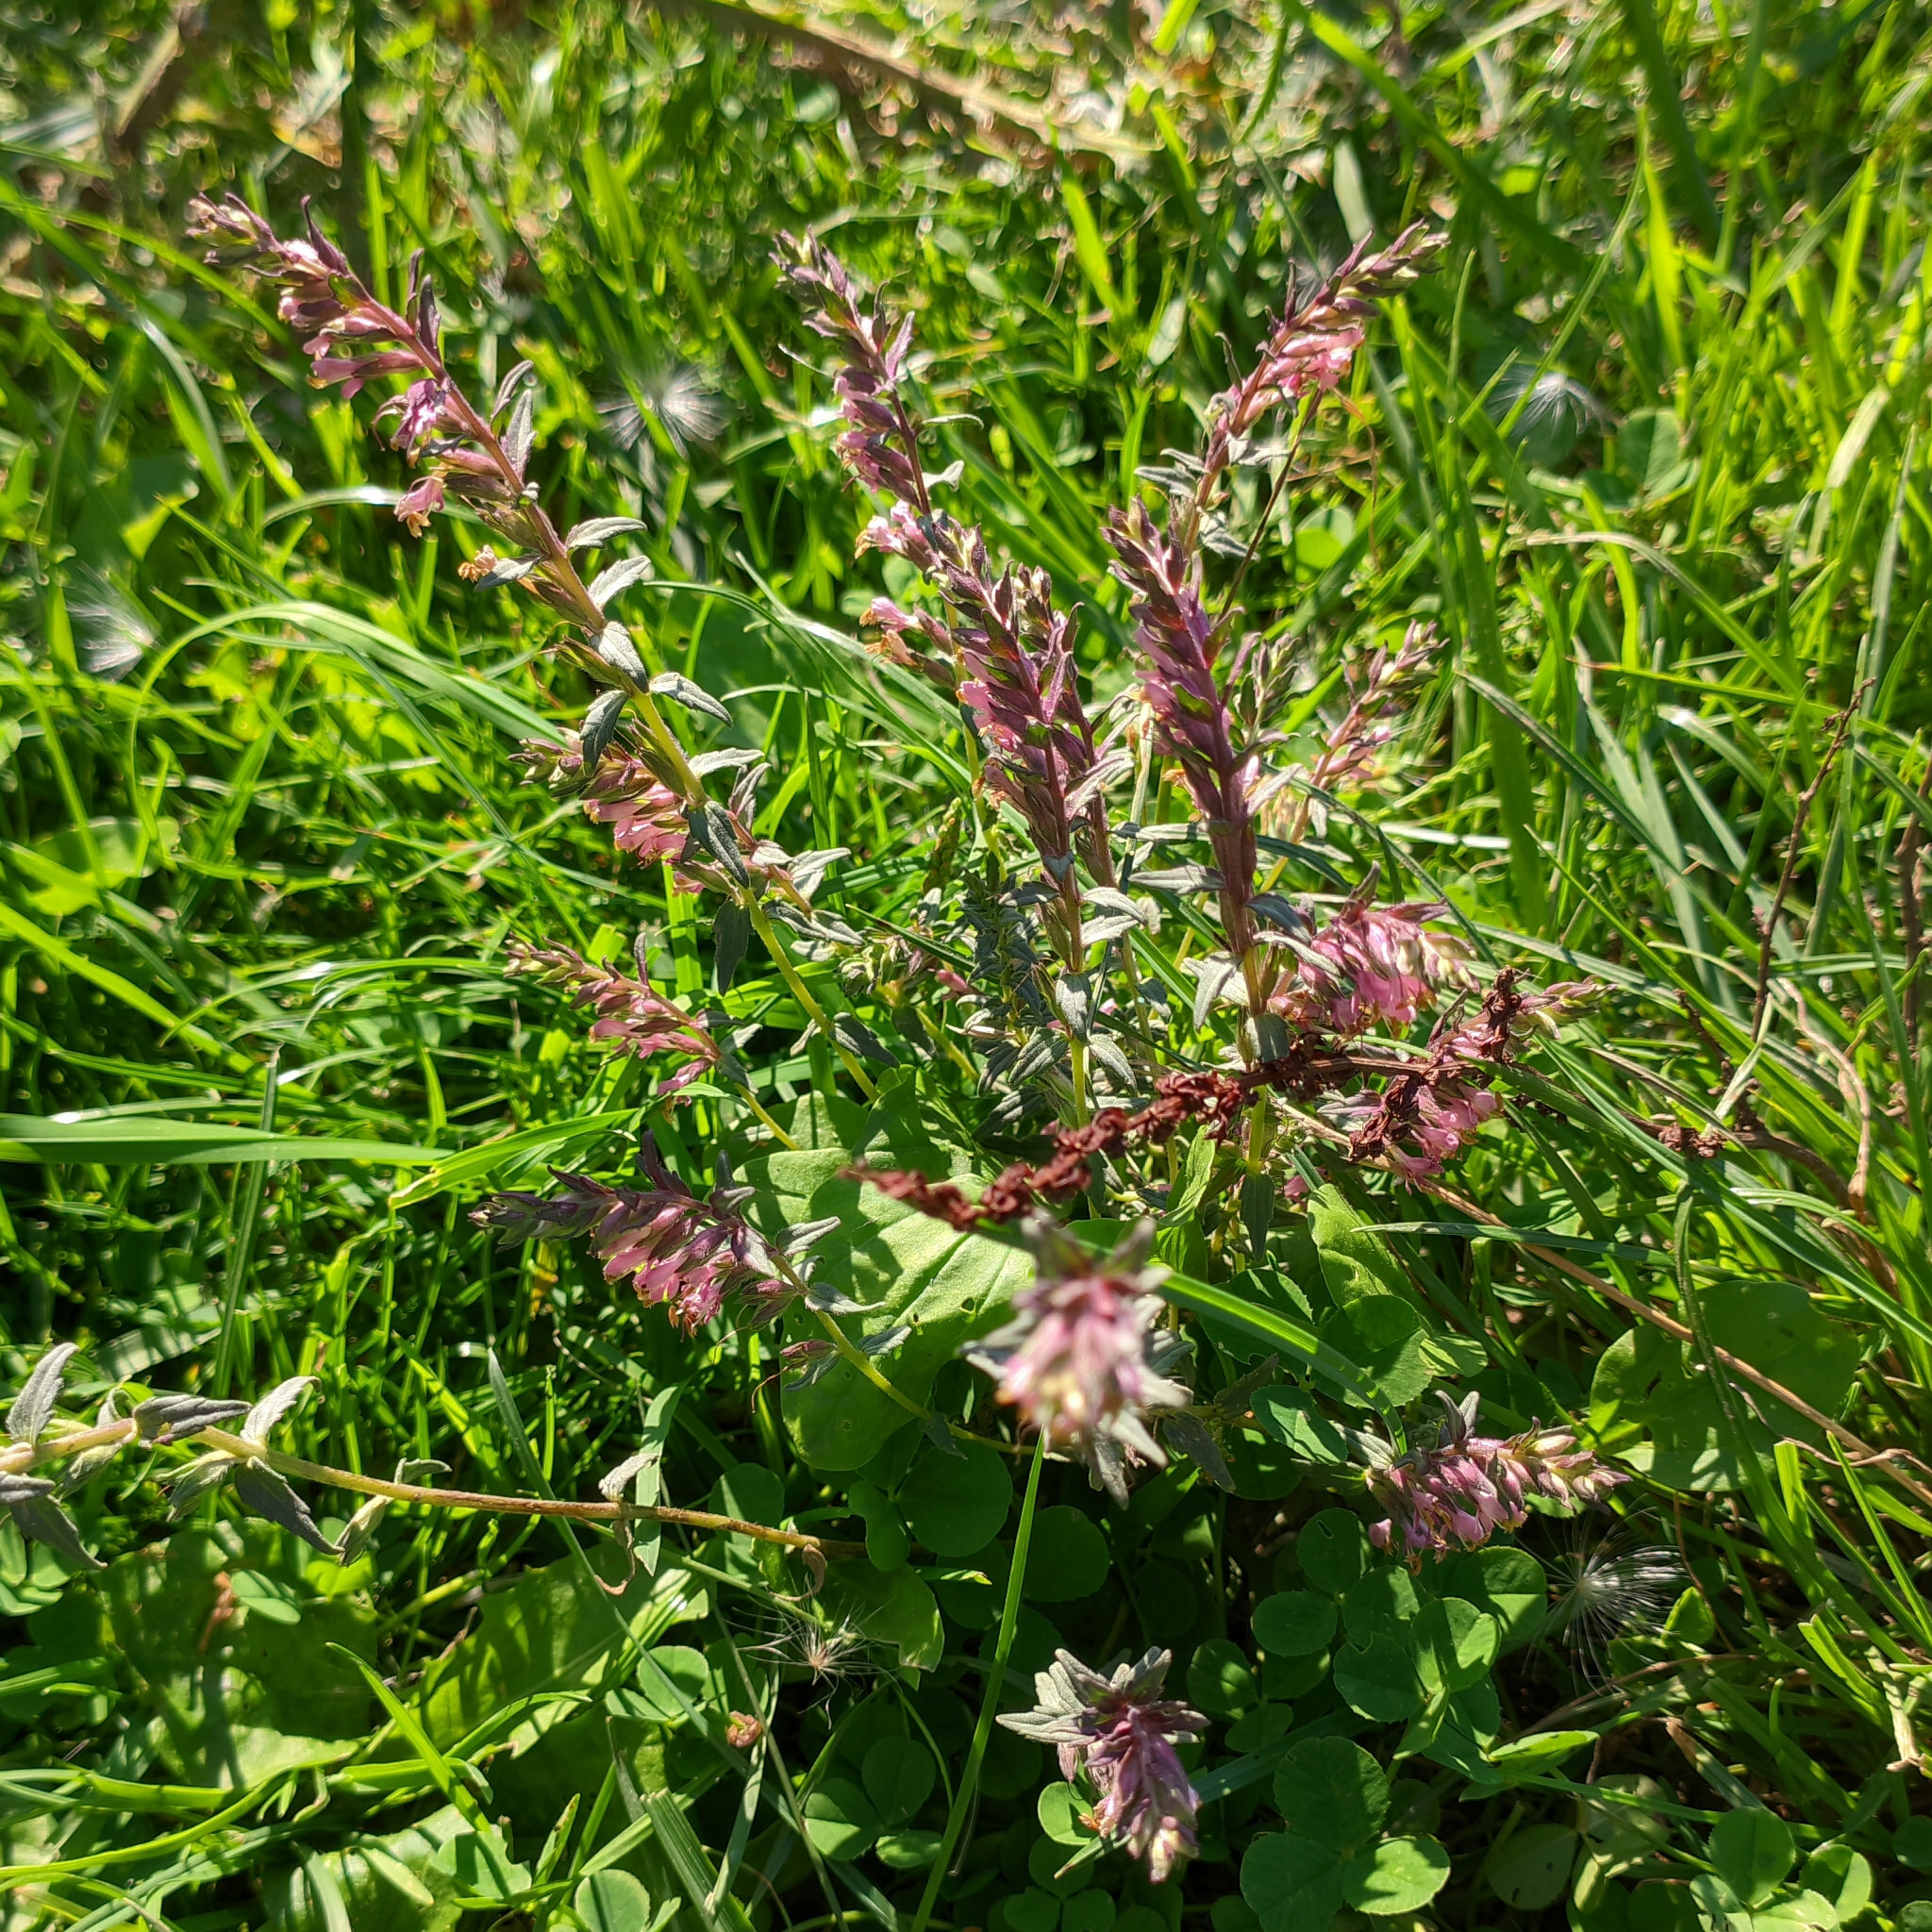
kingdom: Plantae
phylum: Tracheophyta
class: Magnoliopsida
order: Lamiales
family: Orobanchaceae
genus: Odontites
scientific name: Odontites vulgaris
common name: Broomrape
